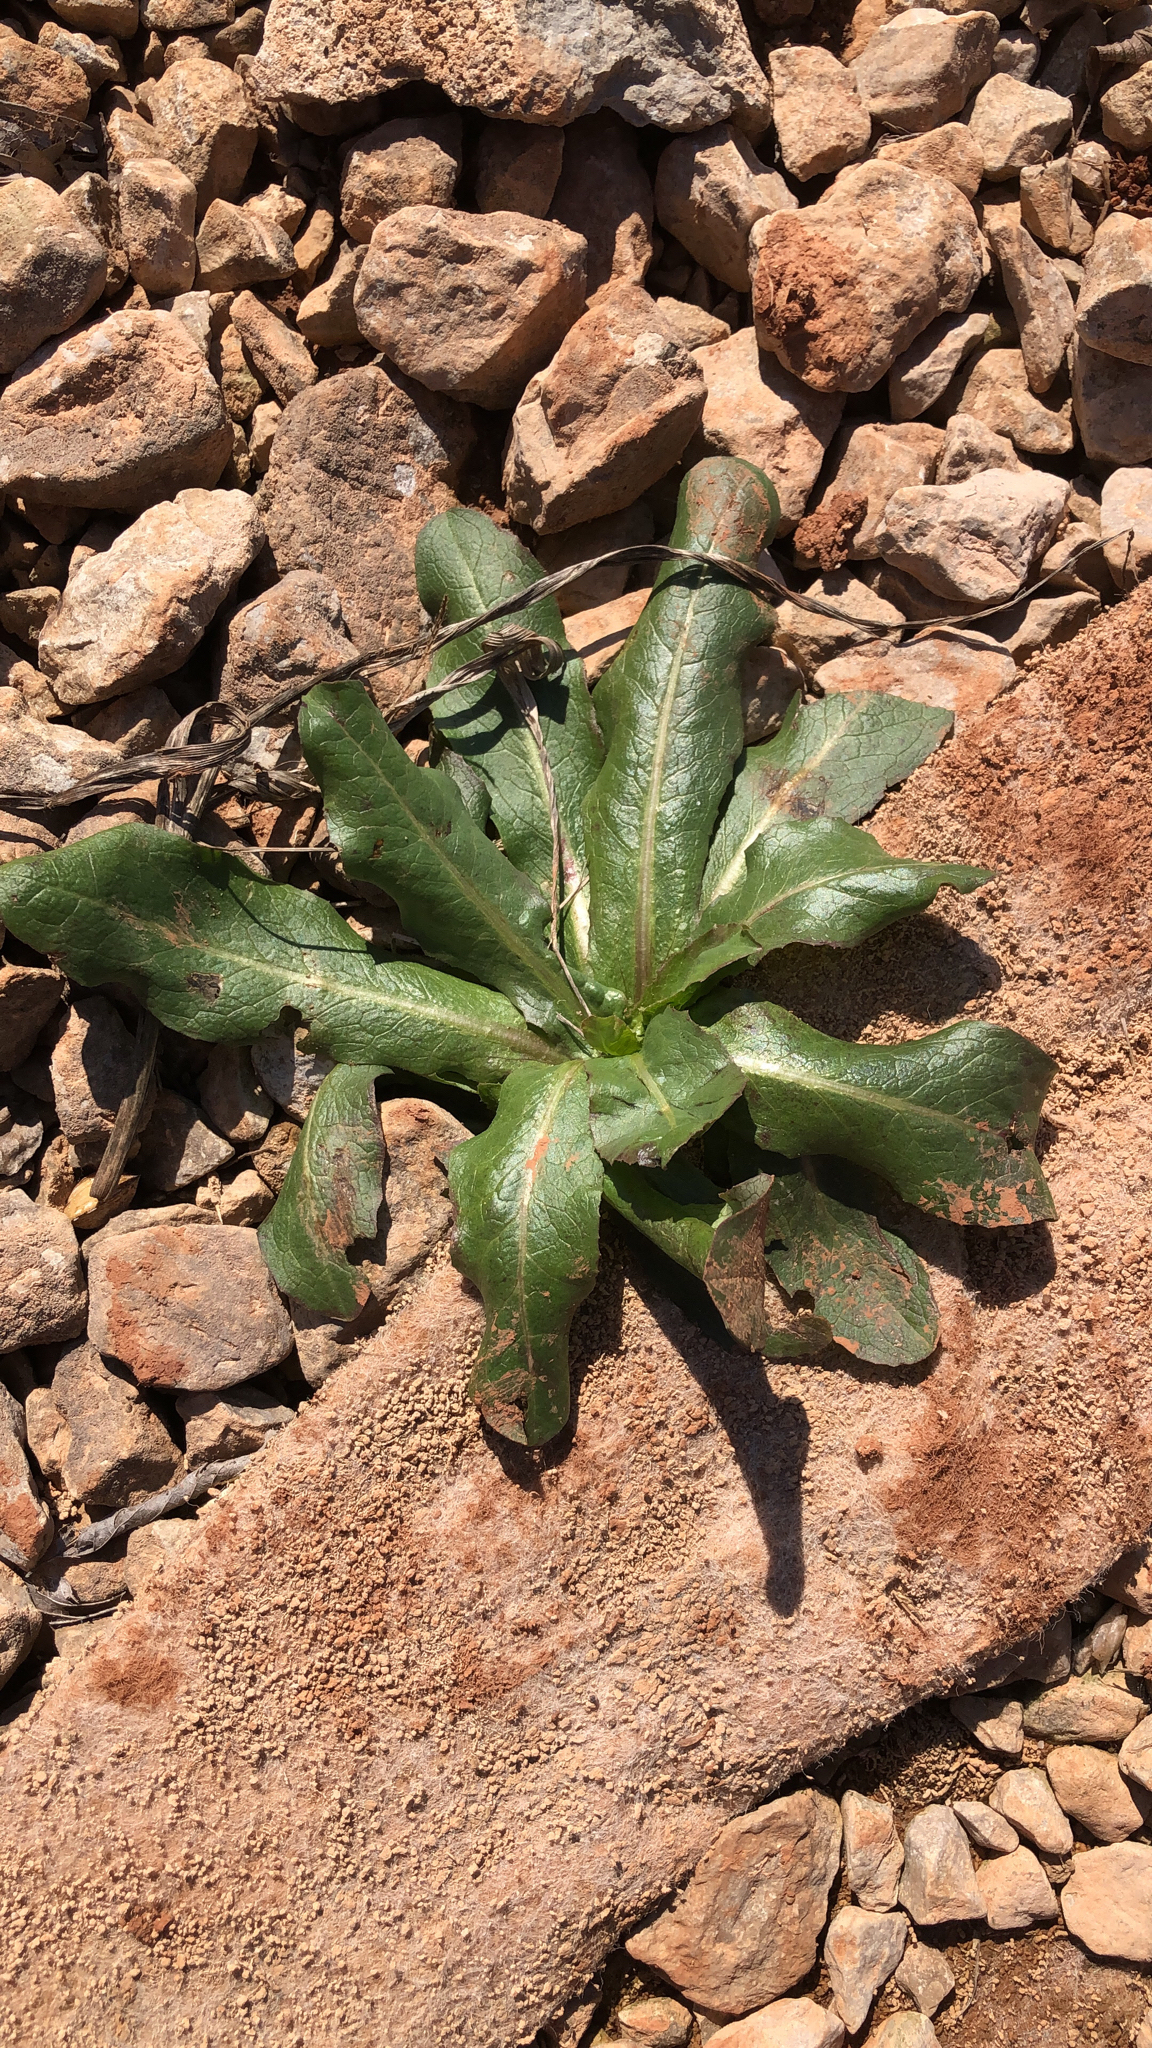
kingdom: Plantae
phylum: Tracheophyta
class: Magnoliopsida
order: Asterales
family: Asteraceae
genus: Lactuca
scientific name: Lactuca serriola
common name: Prickly lettuce
